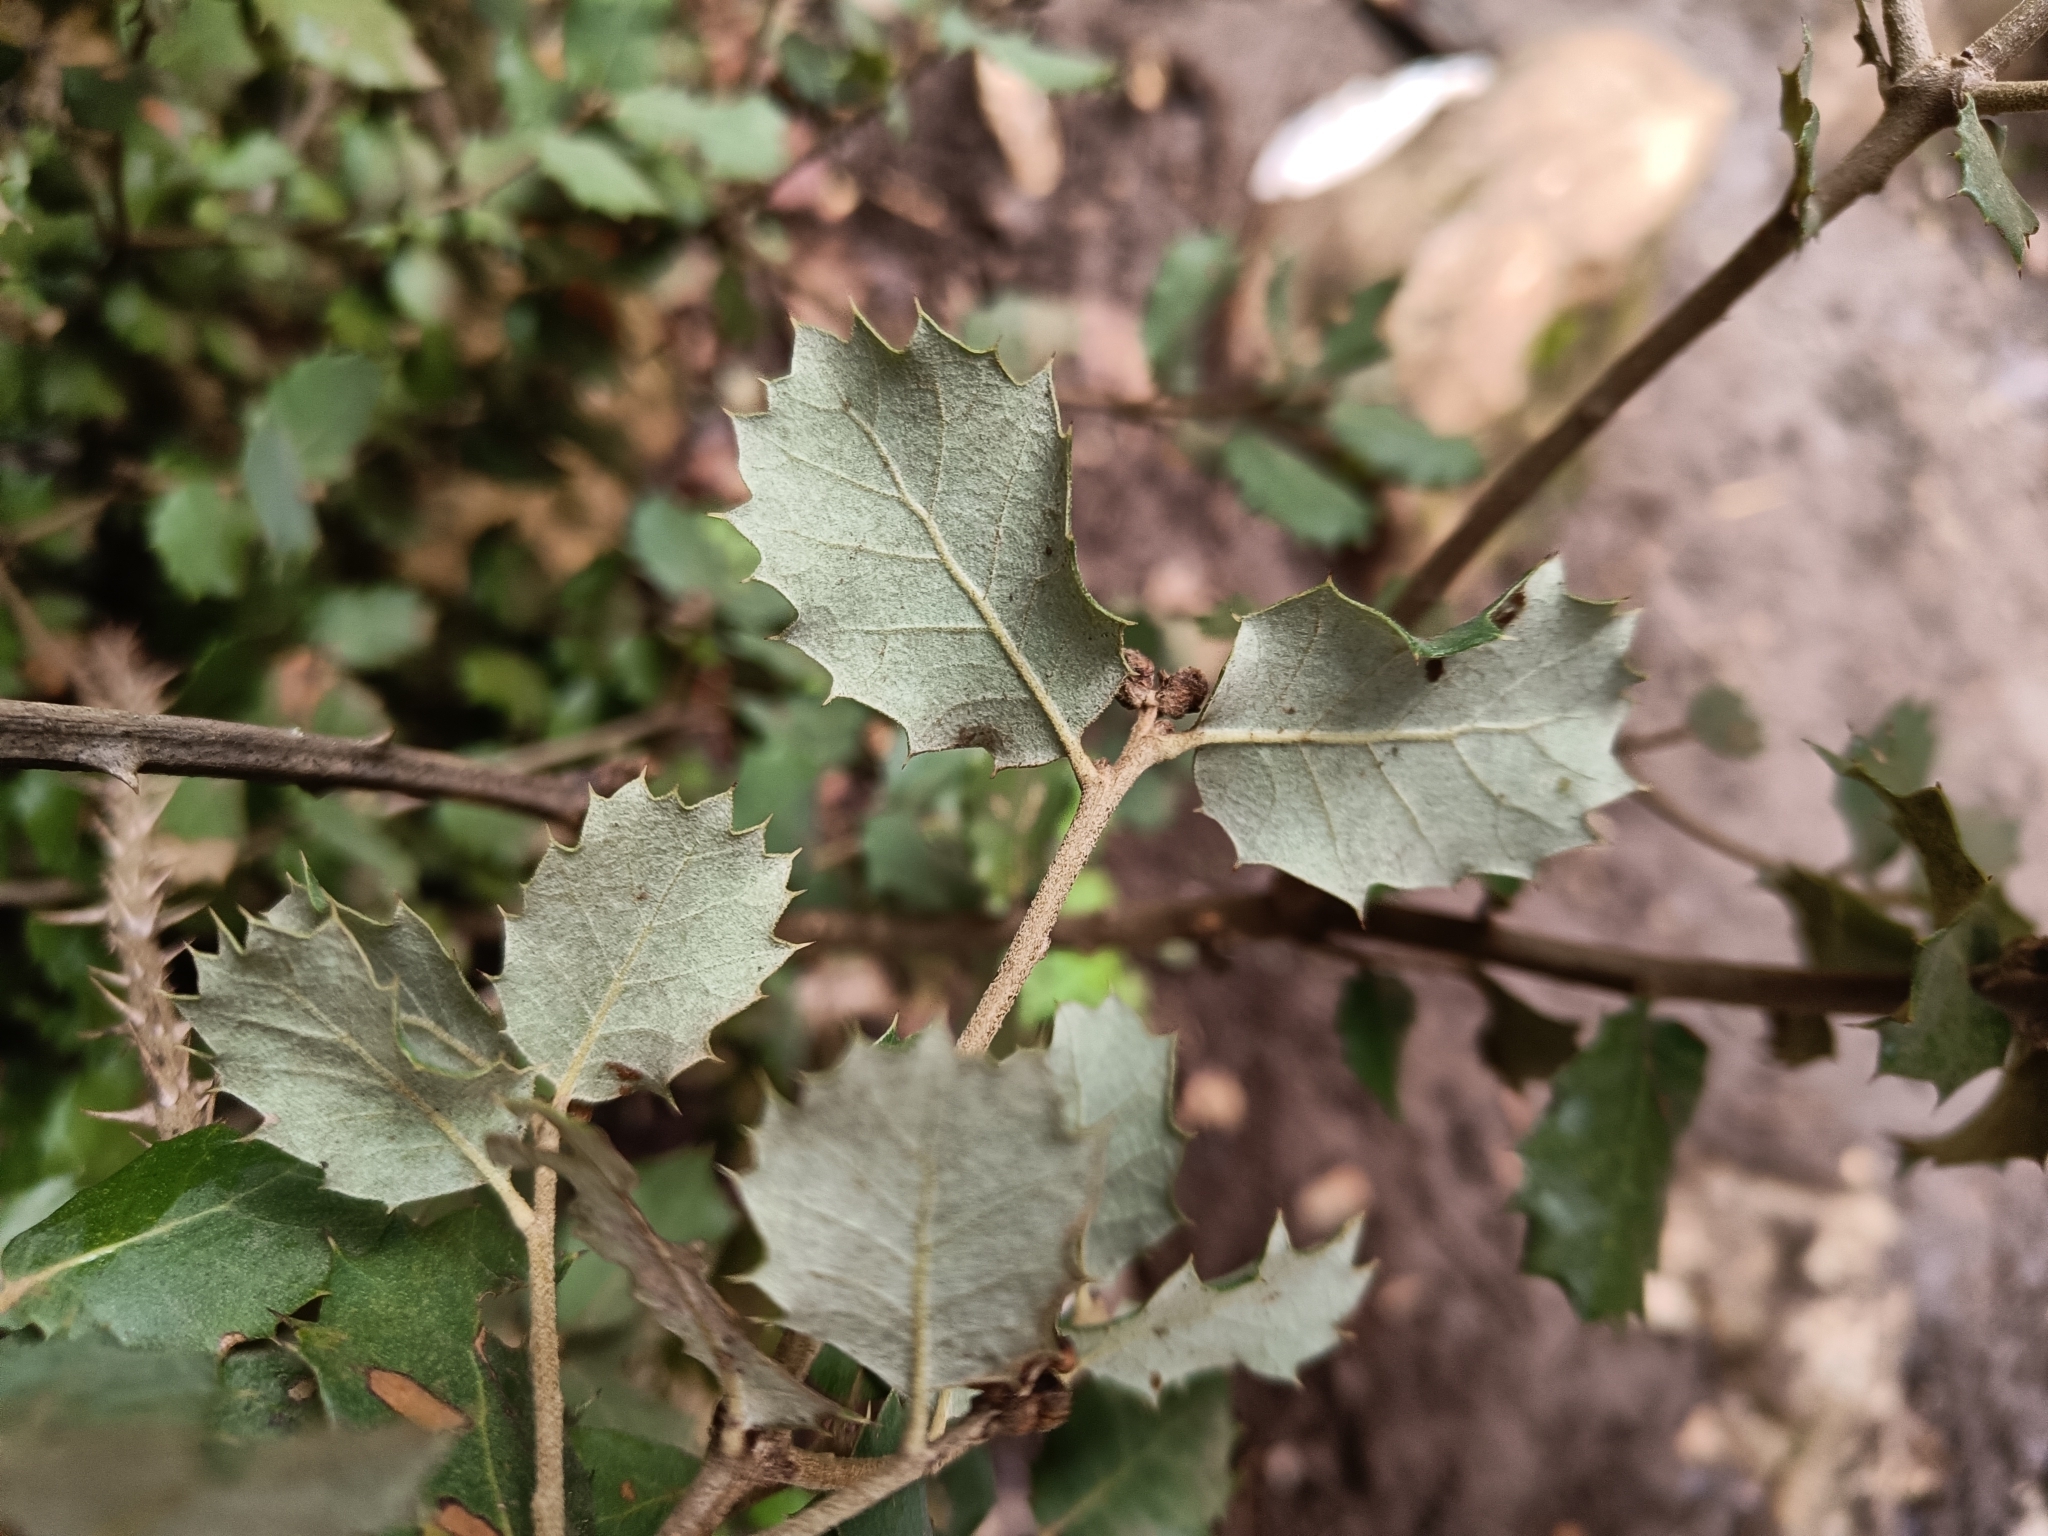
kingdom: Plantae
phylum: Tracheophyta
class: Magnoliopsida
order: Fagales
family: Fagaceae
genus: Quercus
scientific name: Quercus rotundifolia
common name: Holm oak
